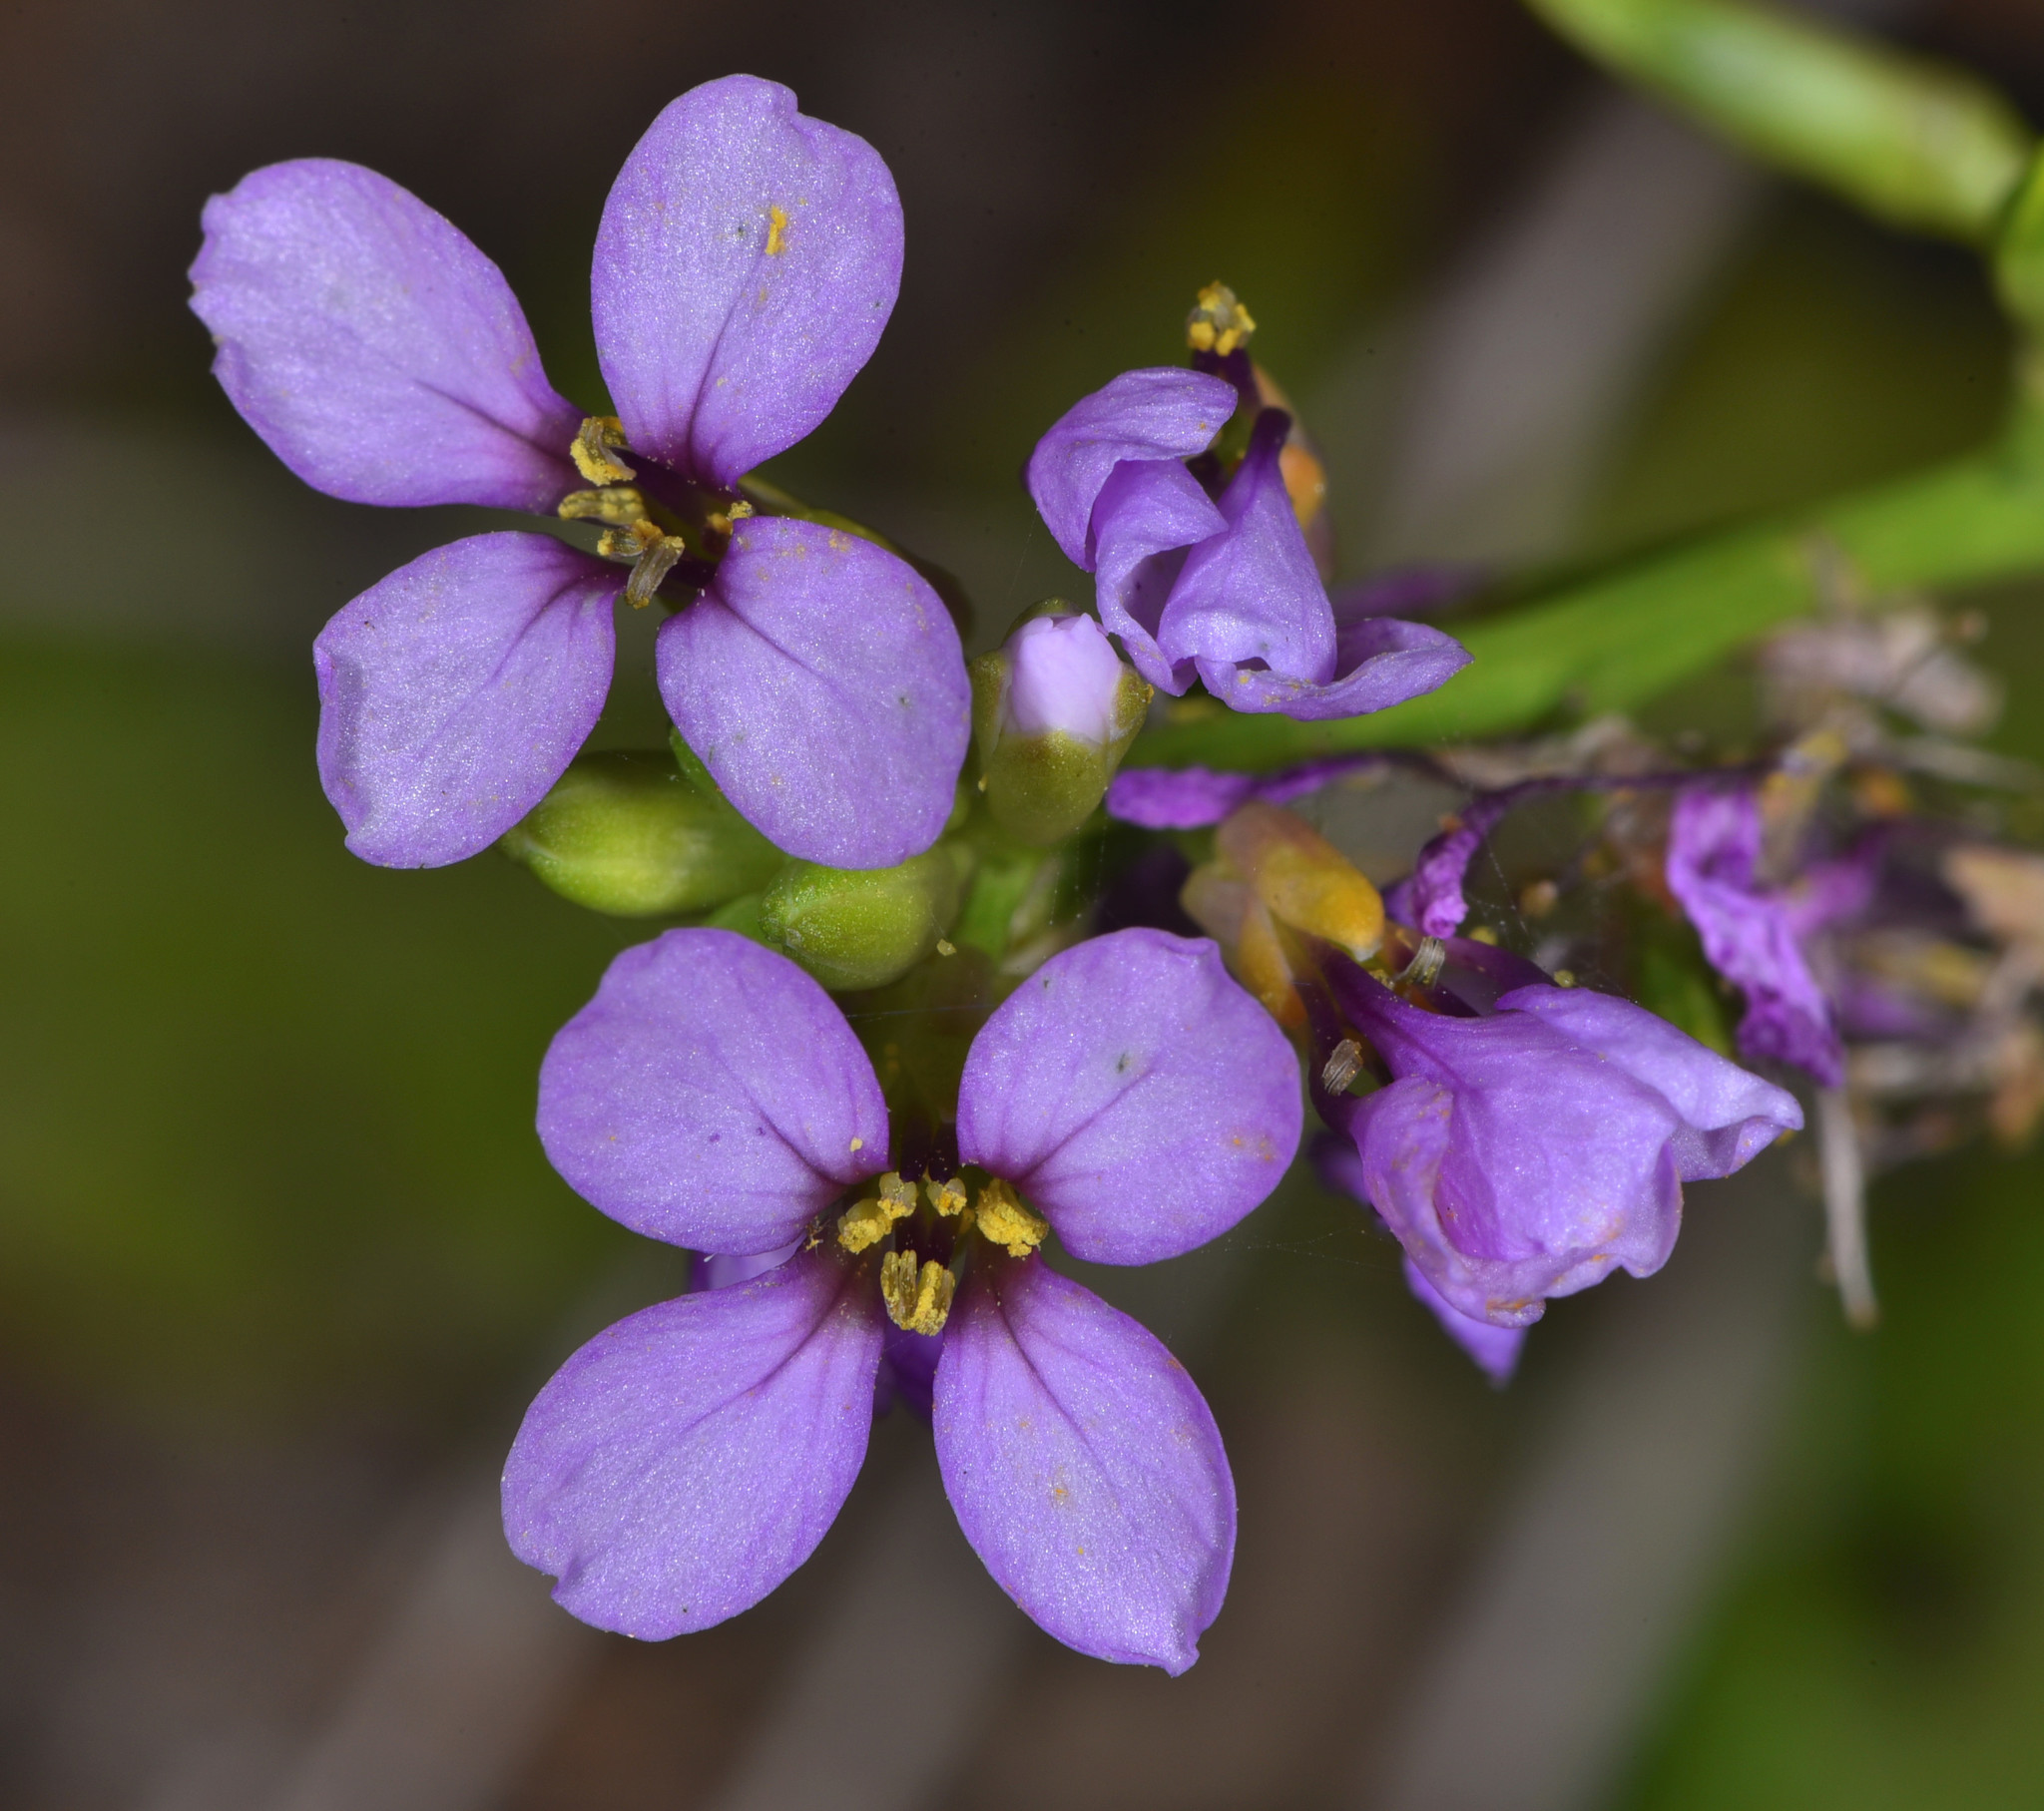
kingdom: Plantae
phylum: Tracheophyta
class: Magnoliopsida
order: Brassicales
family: Brassicaceae
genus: Cakile
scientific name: Cakile maritima
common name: Sea rocket
